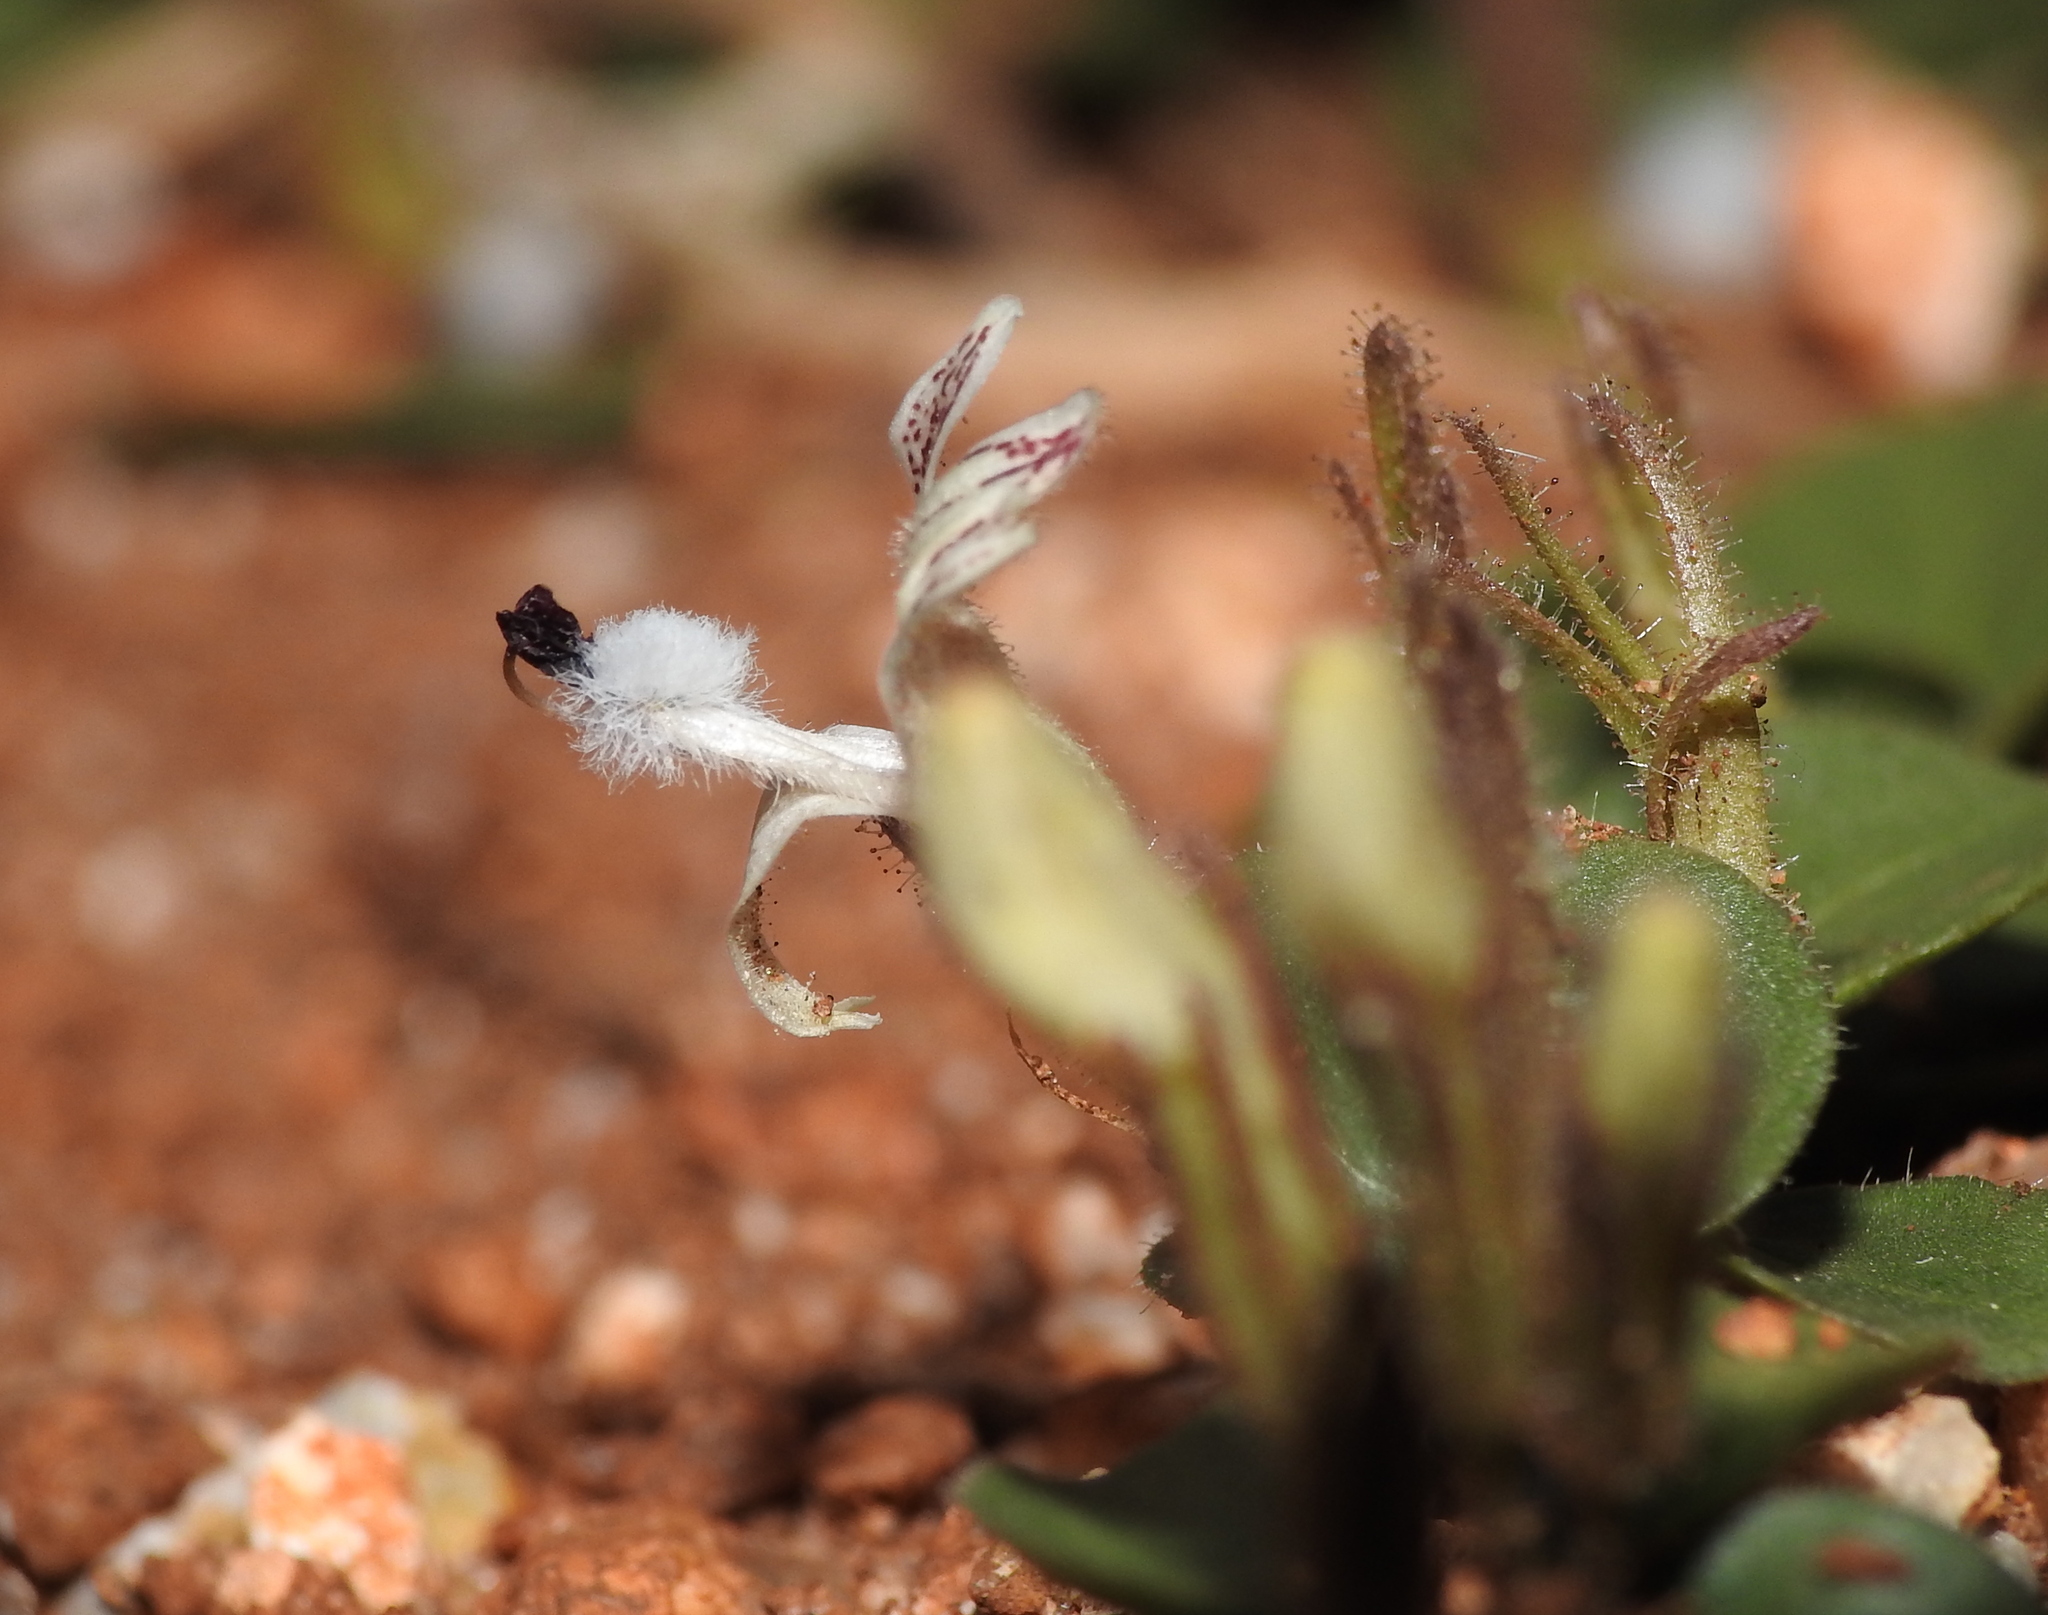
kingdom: Plantae
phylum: Tracheophyta
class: Magnoliopsida
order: Lamiales
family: Acanthaceae
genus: Andrographis
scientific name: Andrographis serpyllifolia
